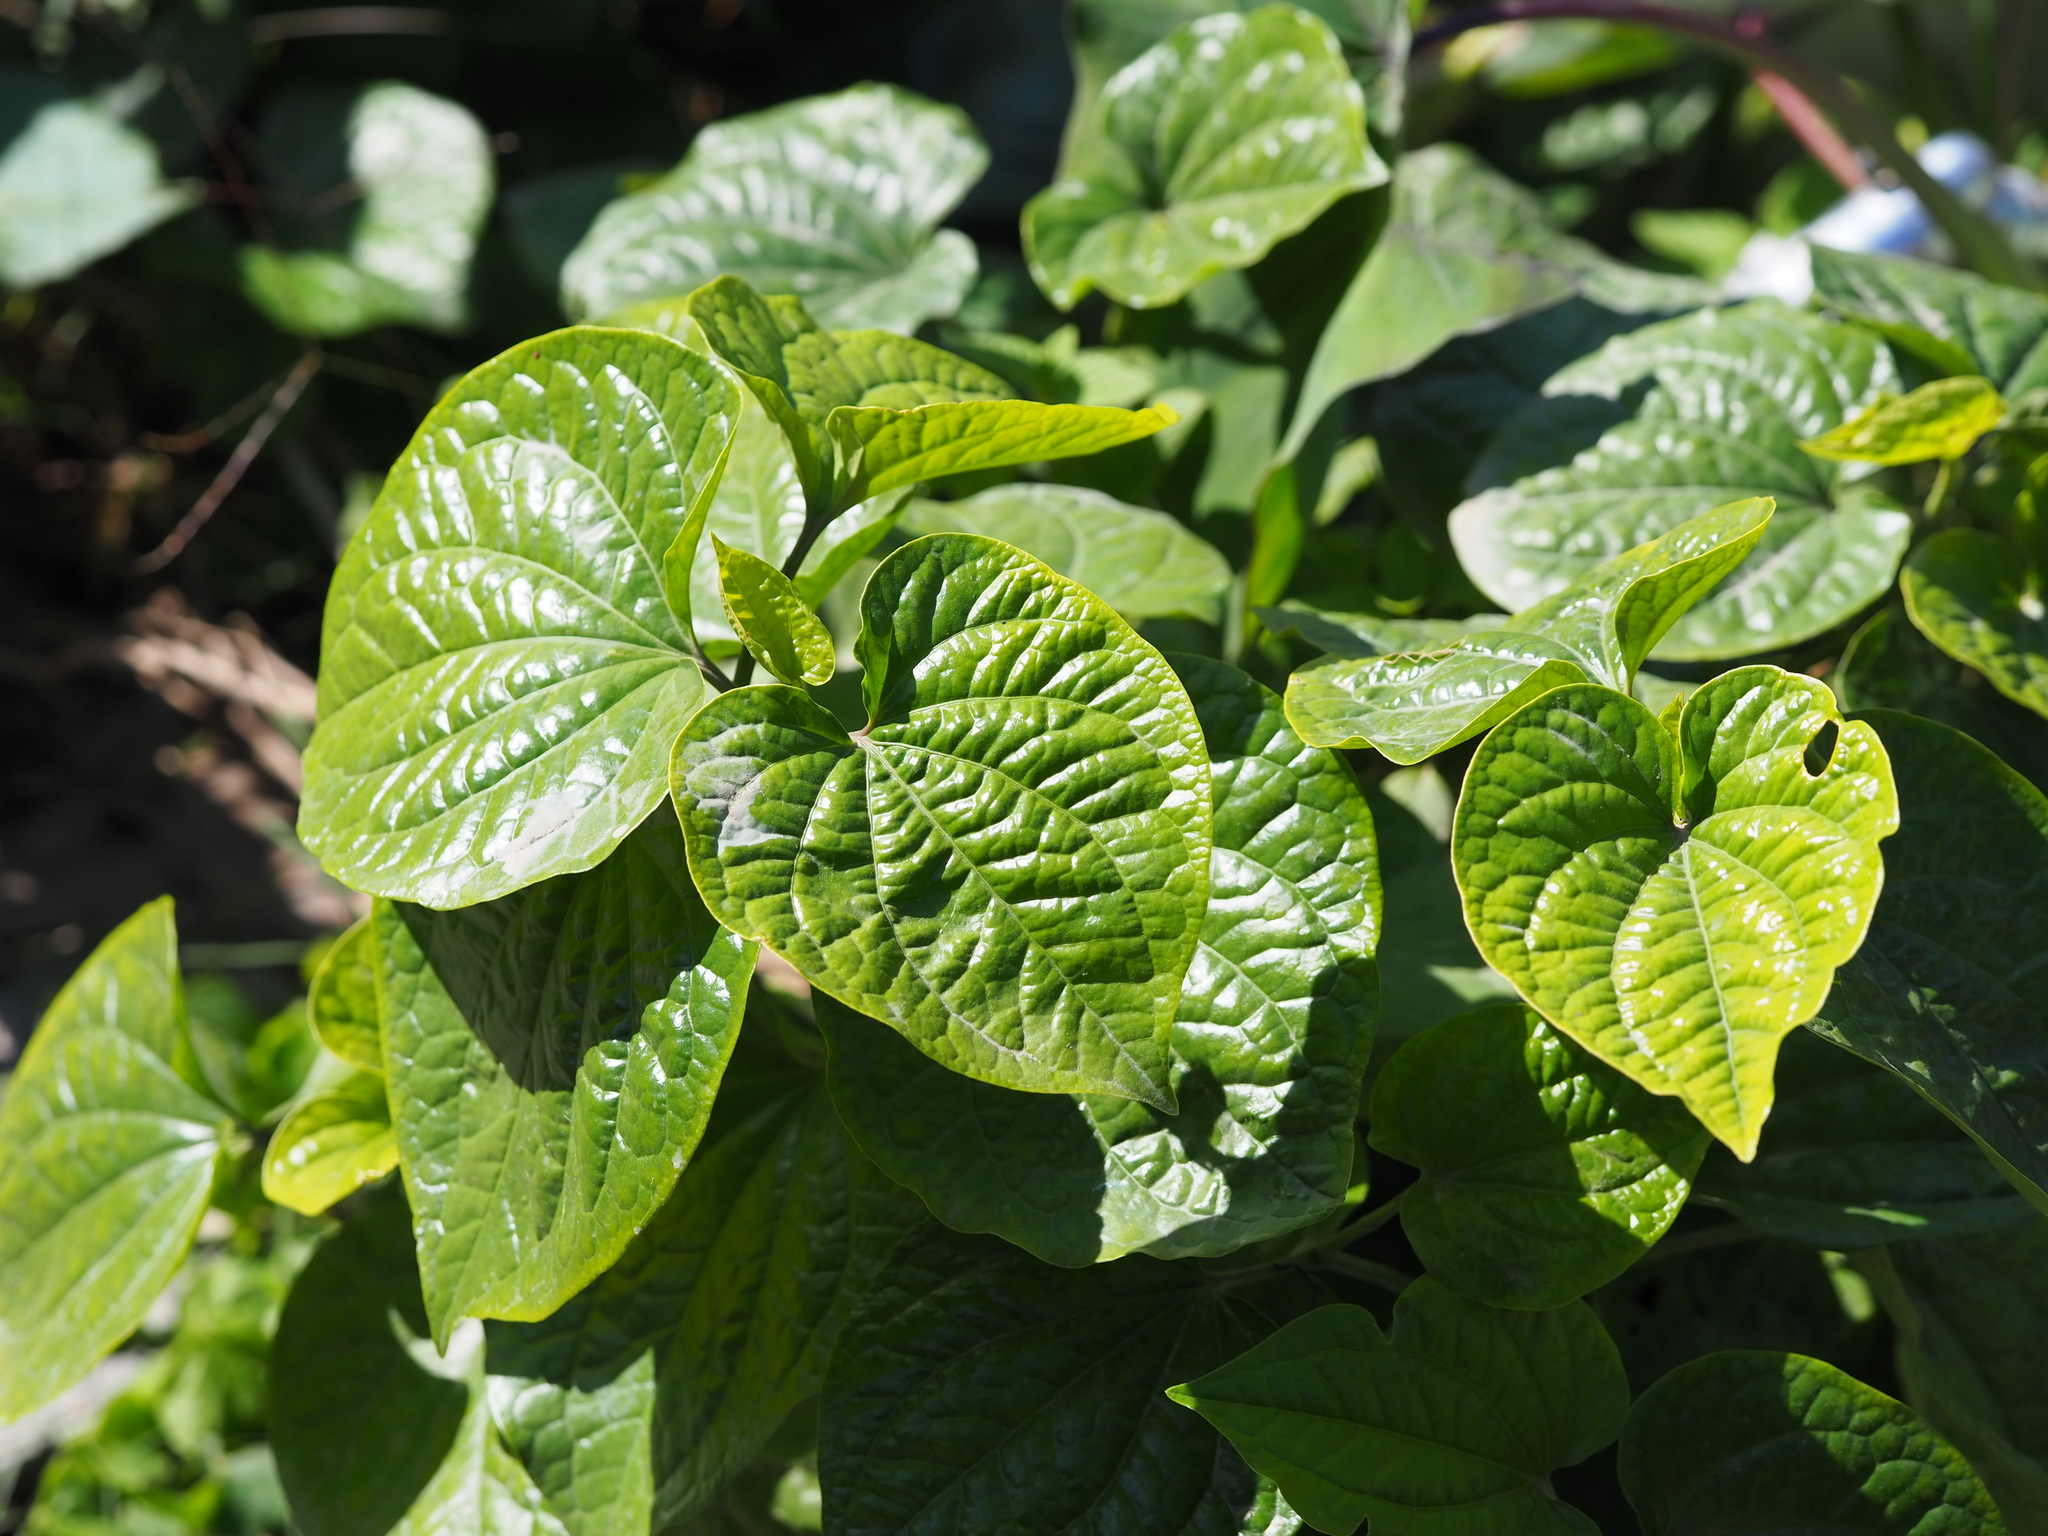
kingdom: Plantae
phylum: Tracheophyta
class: Magnoliopsida
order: Piperales
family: Piperaceae
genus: Piper
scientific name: Piper sarmentosum
